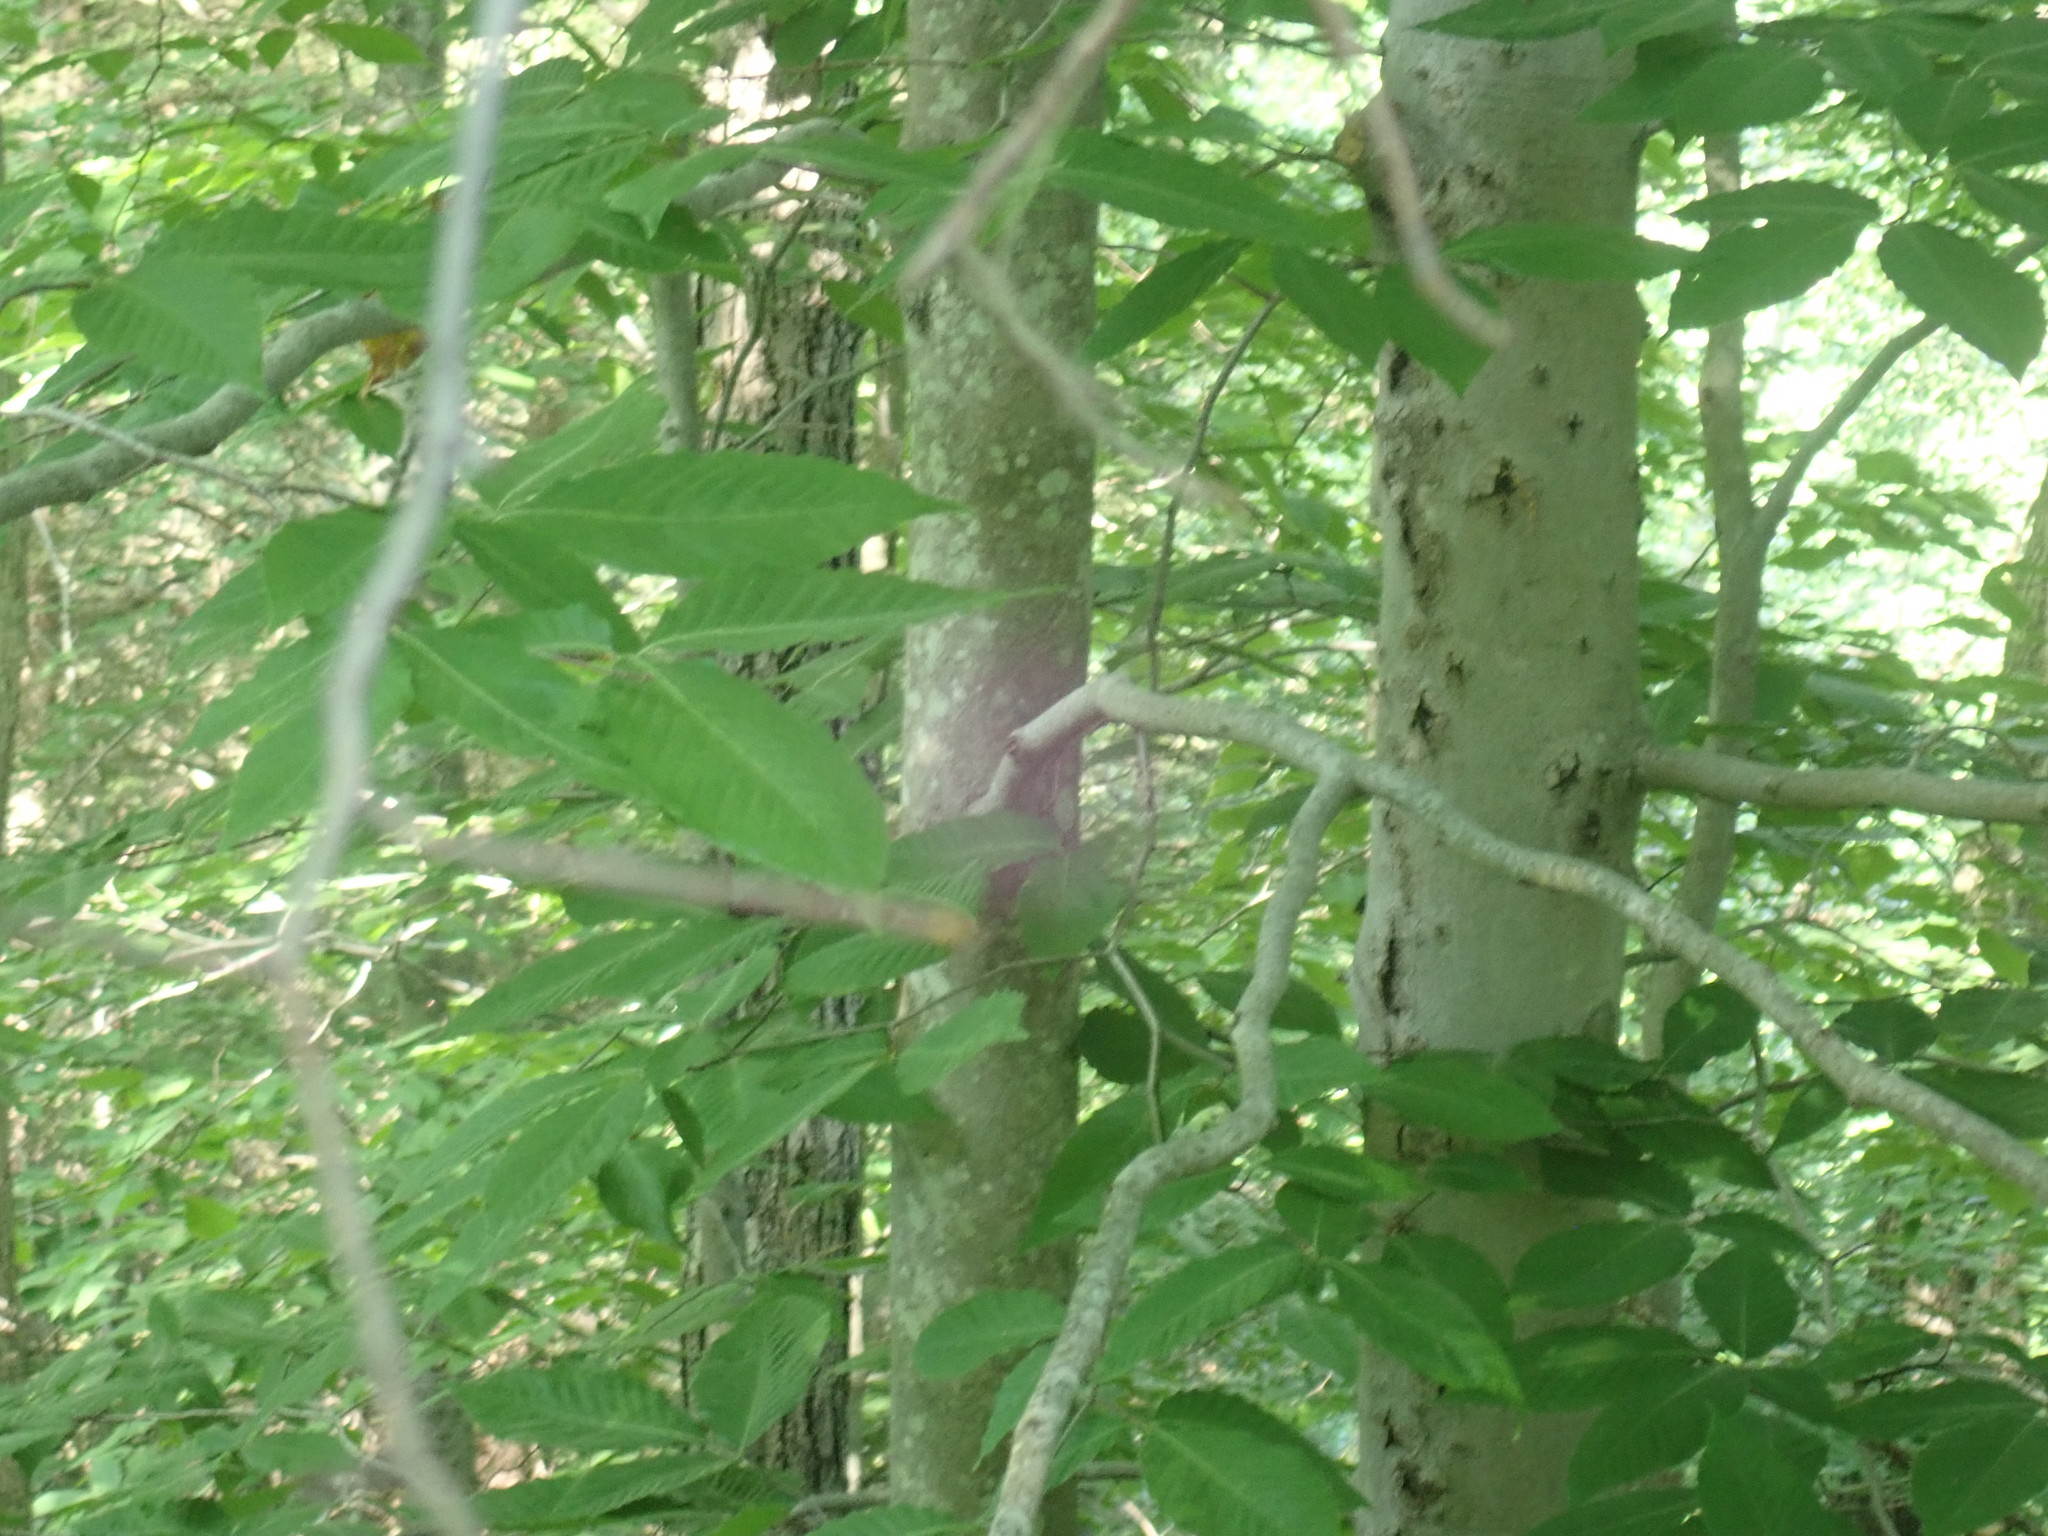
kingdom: Plantae
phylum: Tracheophyta
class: Magnoliopsida
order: Fagales
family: Fagaceae
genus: Fagus
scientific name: Fagus grandifolia
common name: American beech
